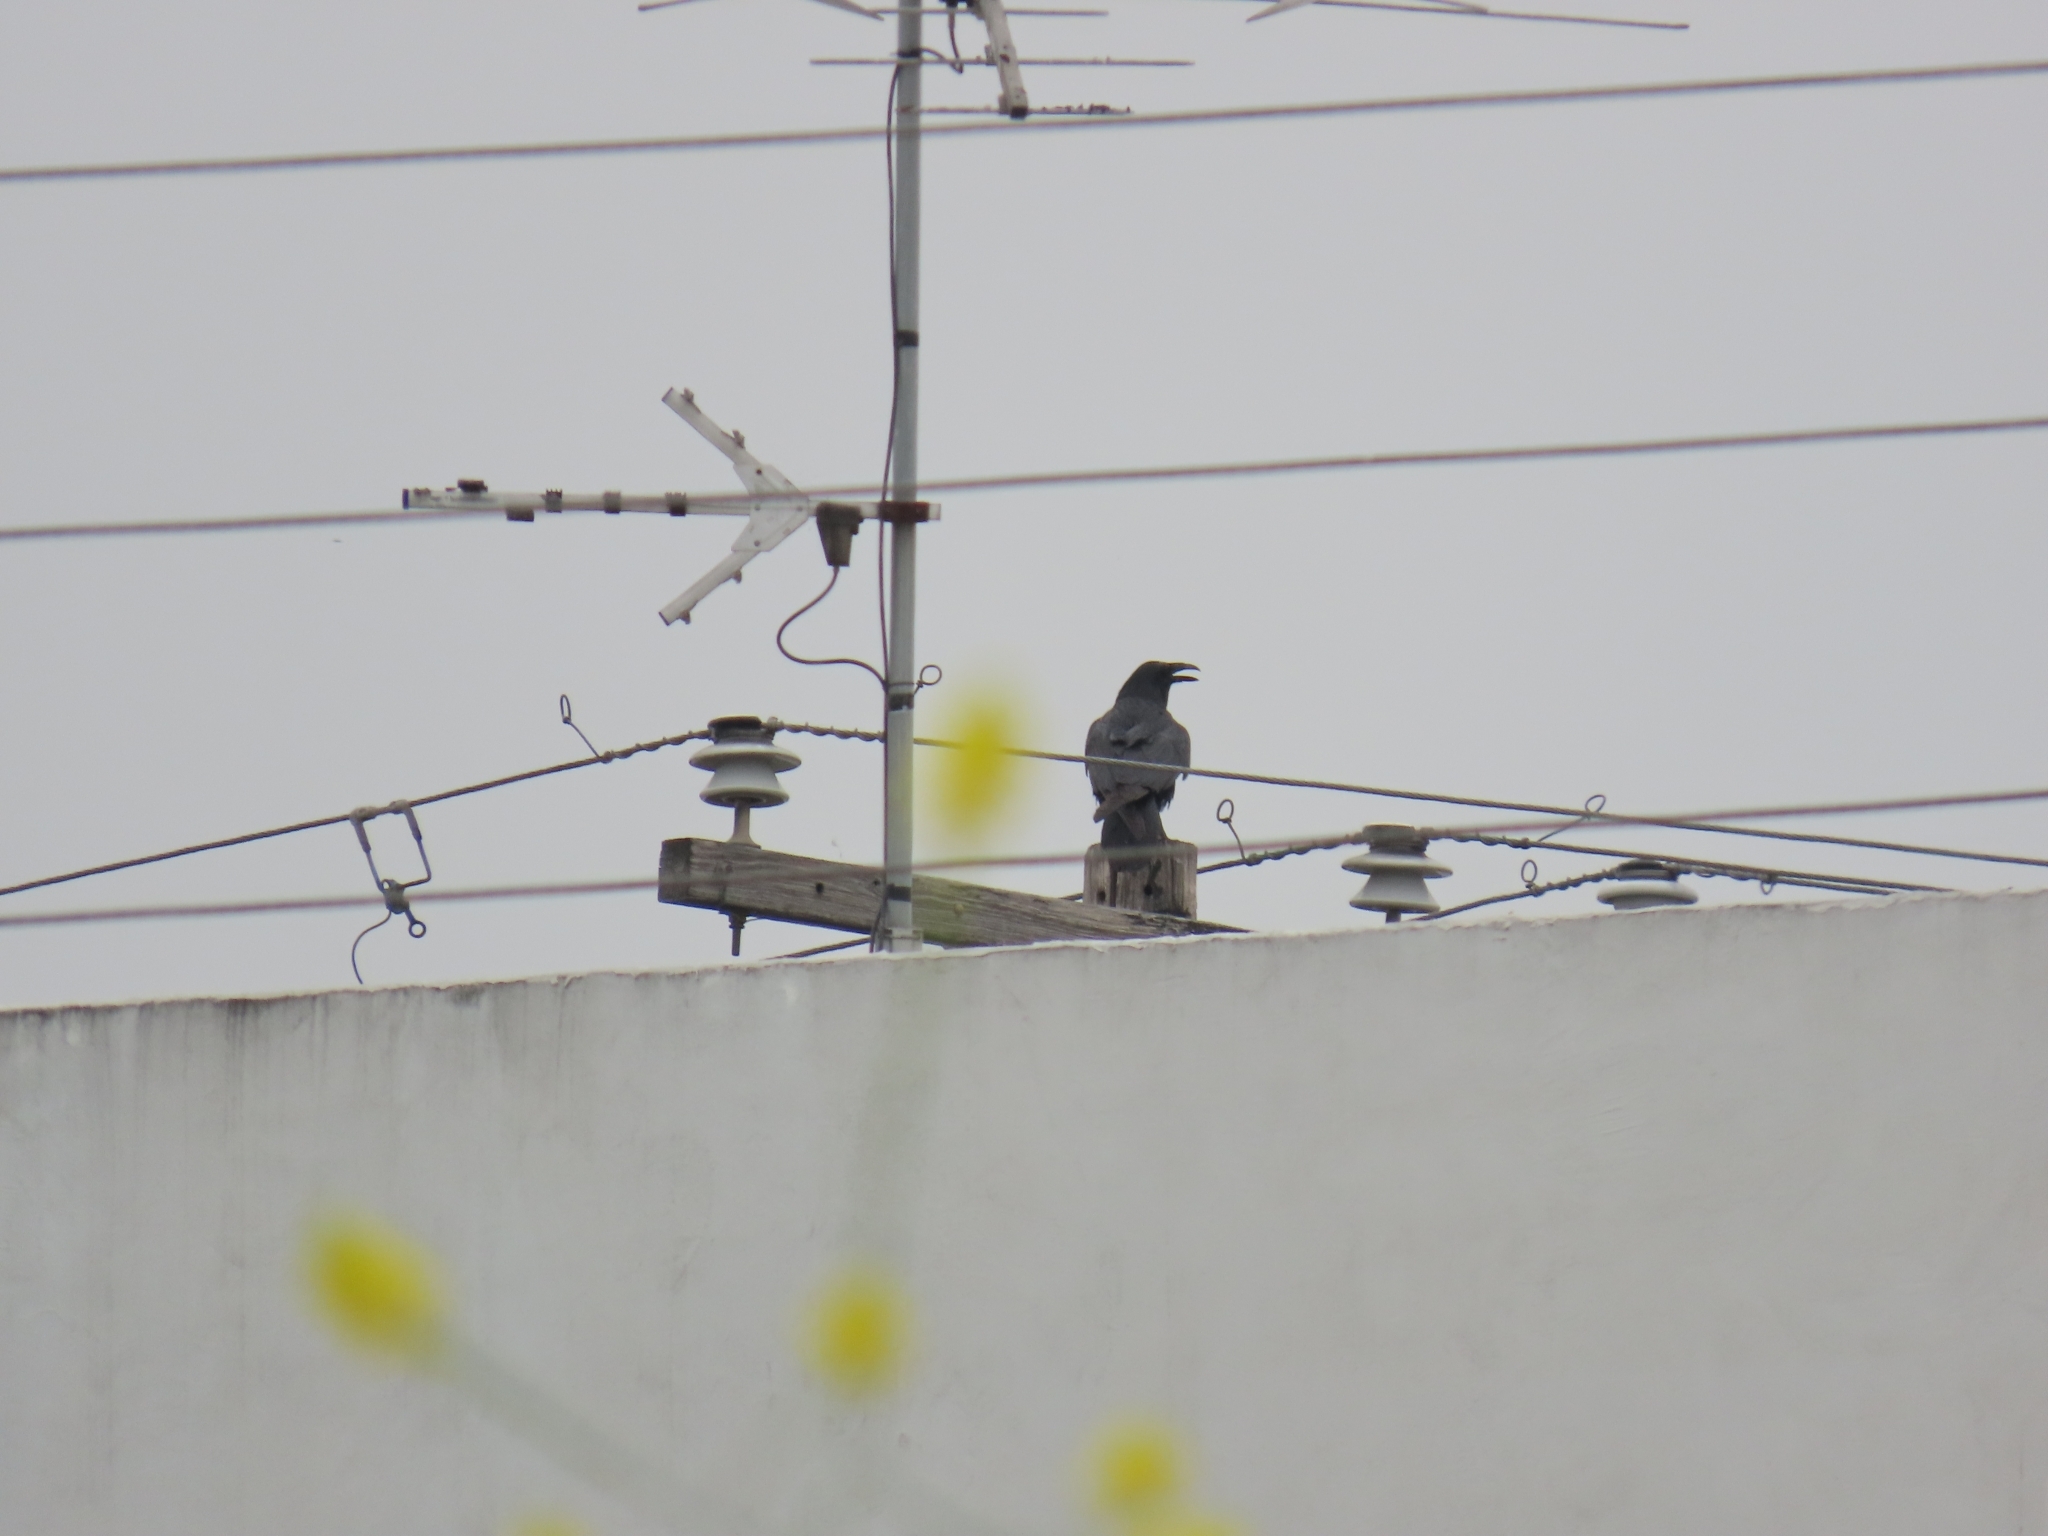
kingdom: Animalia
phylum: Chordata
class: Aves
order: Passeriformes
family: Corvidae
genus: Corvus
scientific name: Corvus corax
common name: Common raven
